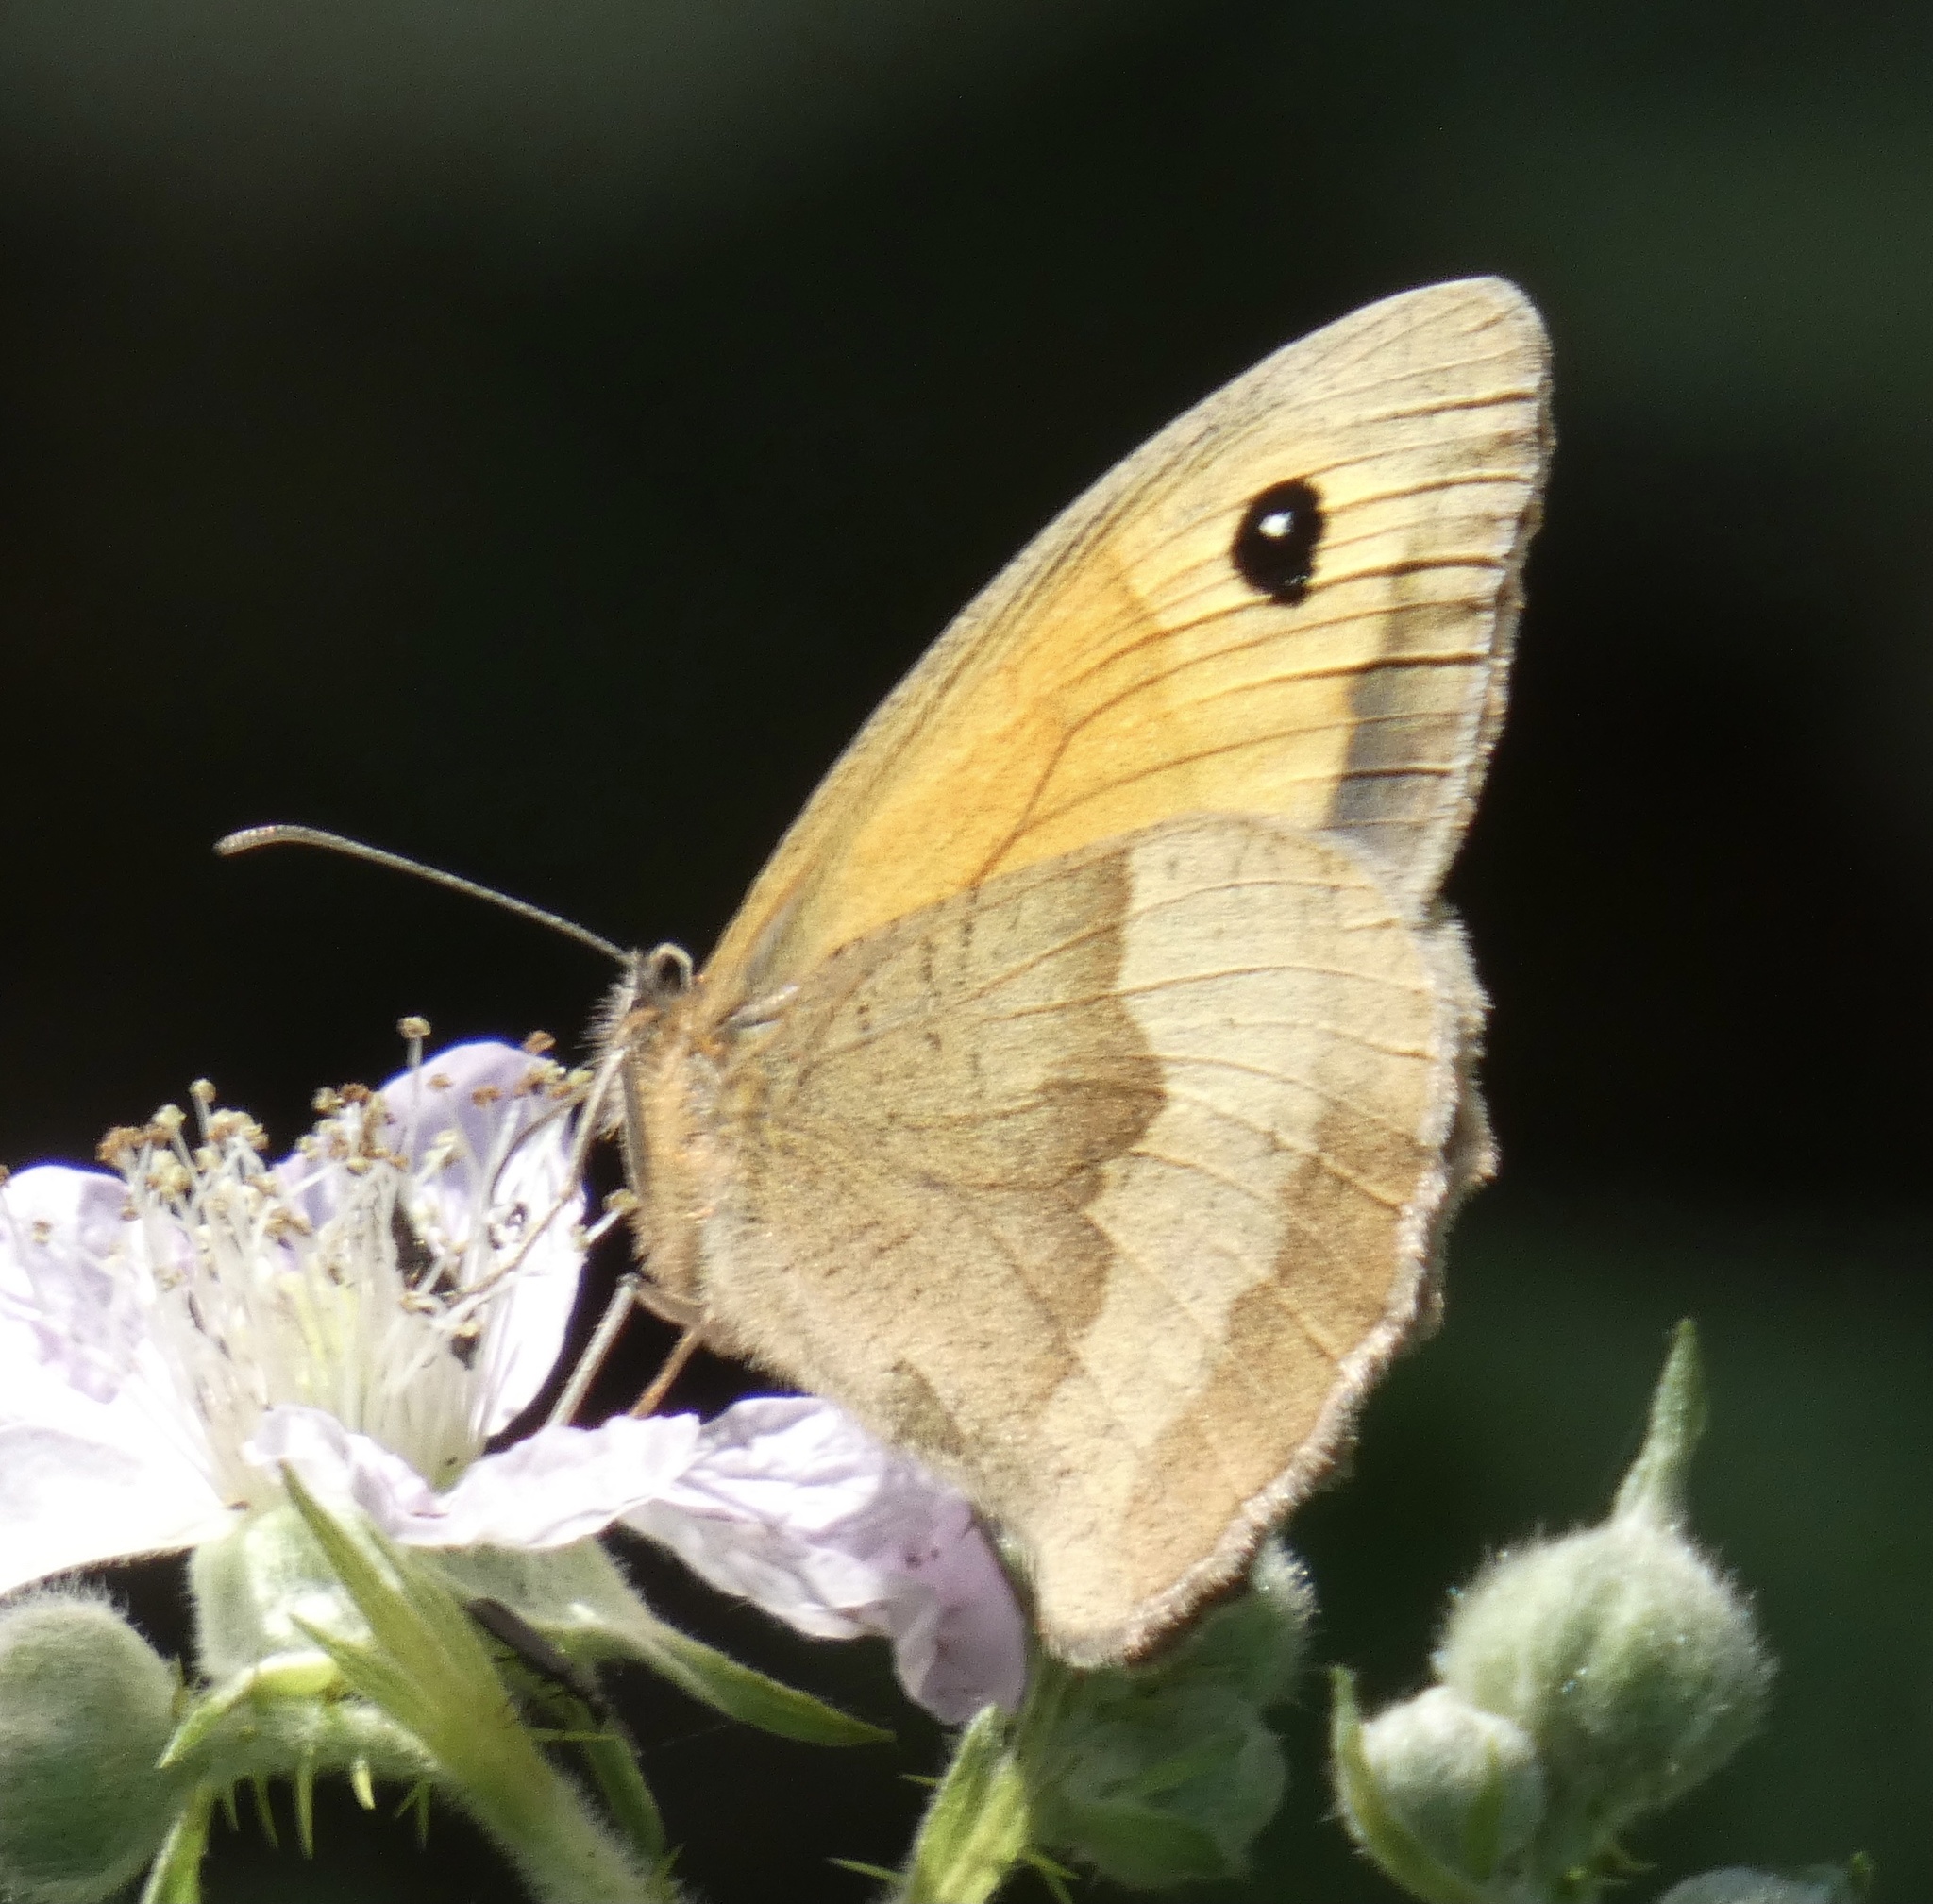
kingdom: Animalia
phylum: Arthropoda
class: Insecta
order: Lepidoptera
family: Nymphalidae
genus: Maniola
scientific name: Maniola jurtina
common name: Meadow brown
